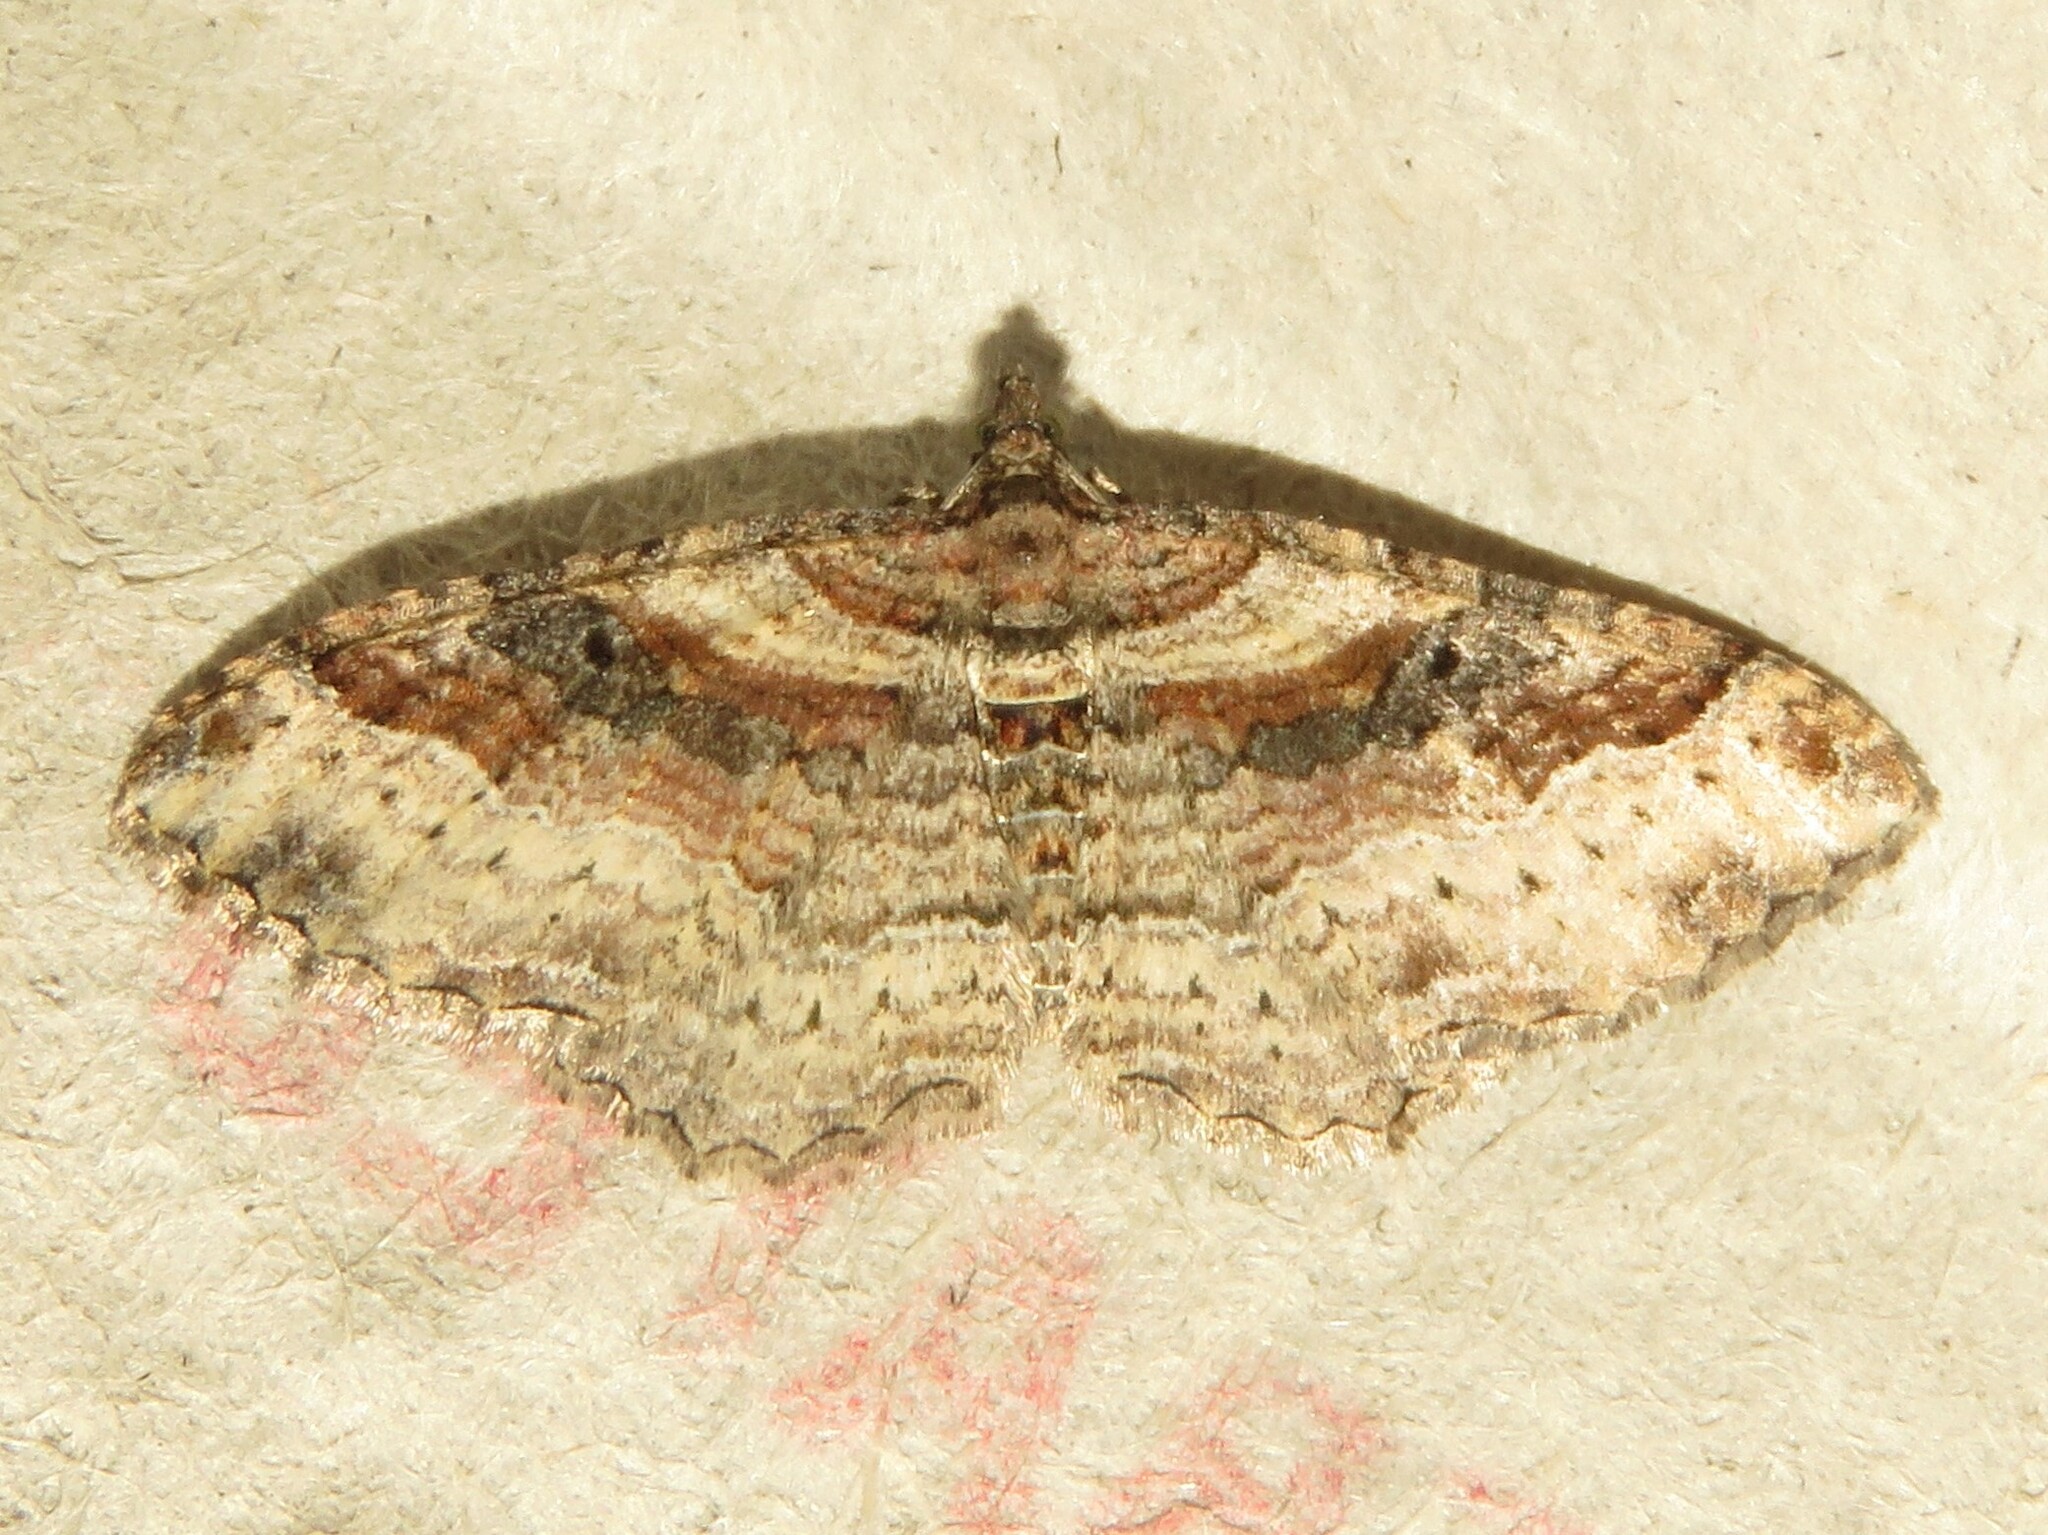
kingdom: Animalia
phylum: Arthropoda
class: Insecta
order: Lepidoptera
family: Geometridae
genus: Costaconvexa
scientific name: Costaconvexa centrostrigaria
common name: Bent-line carpet
